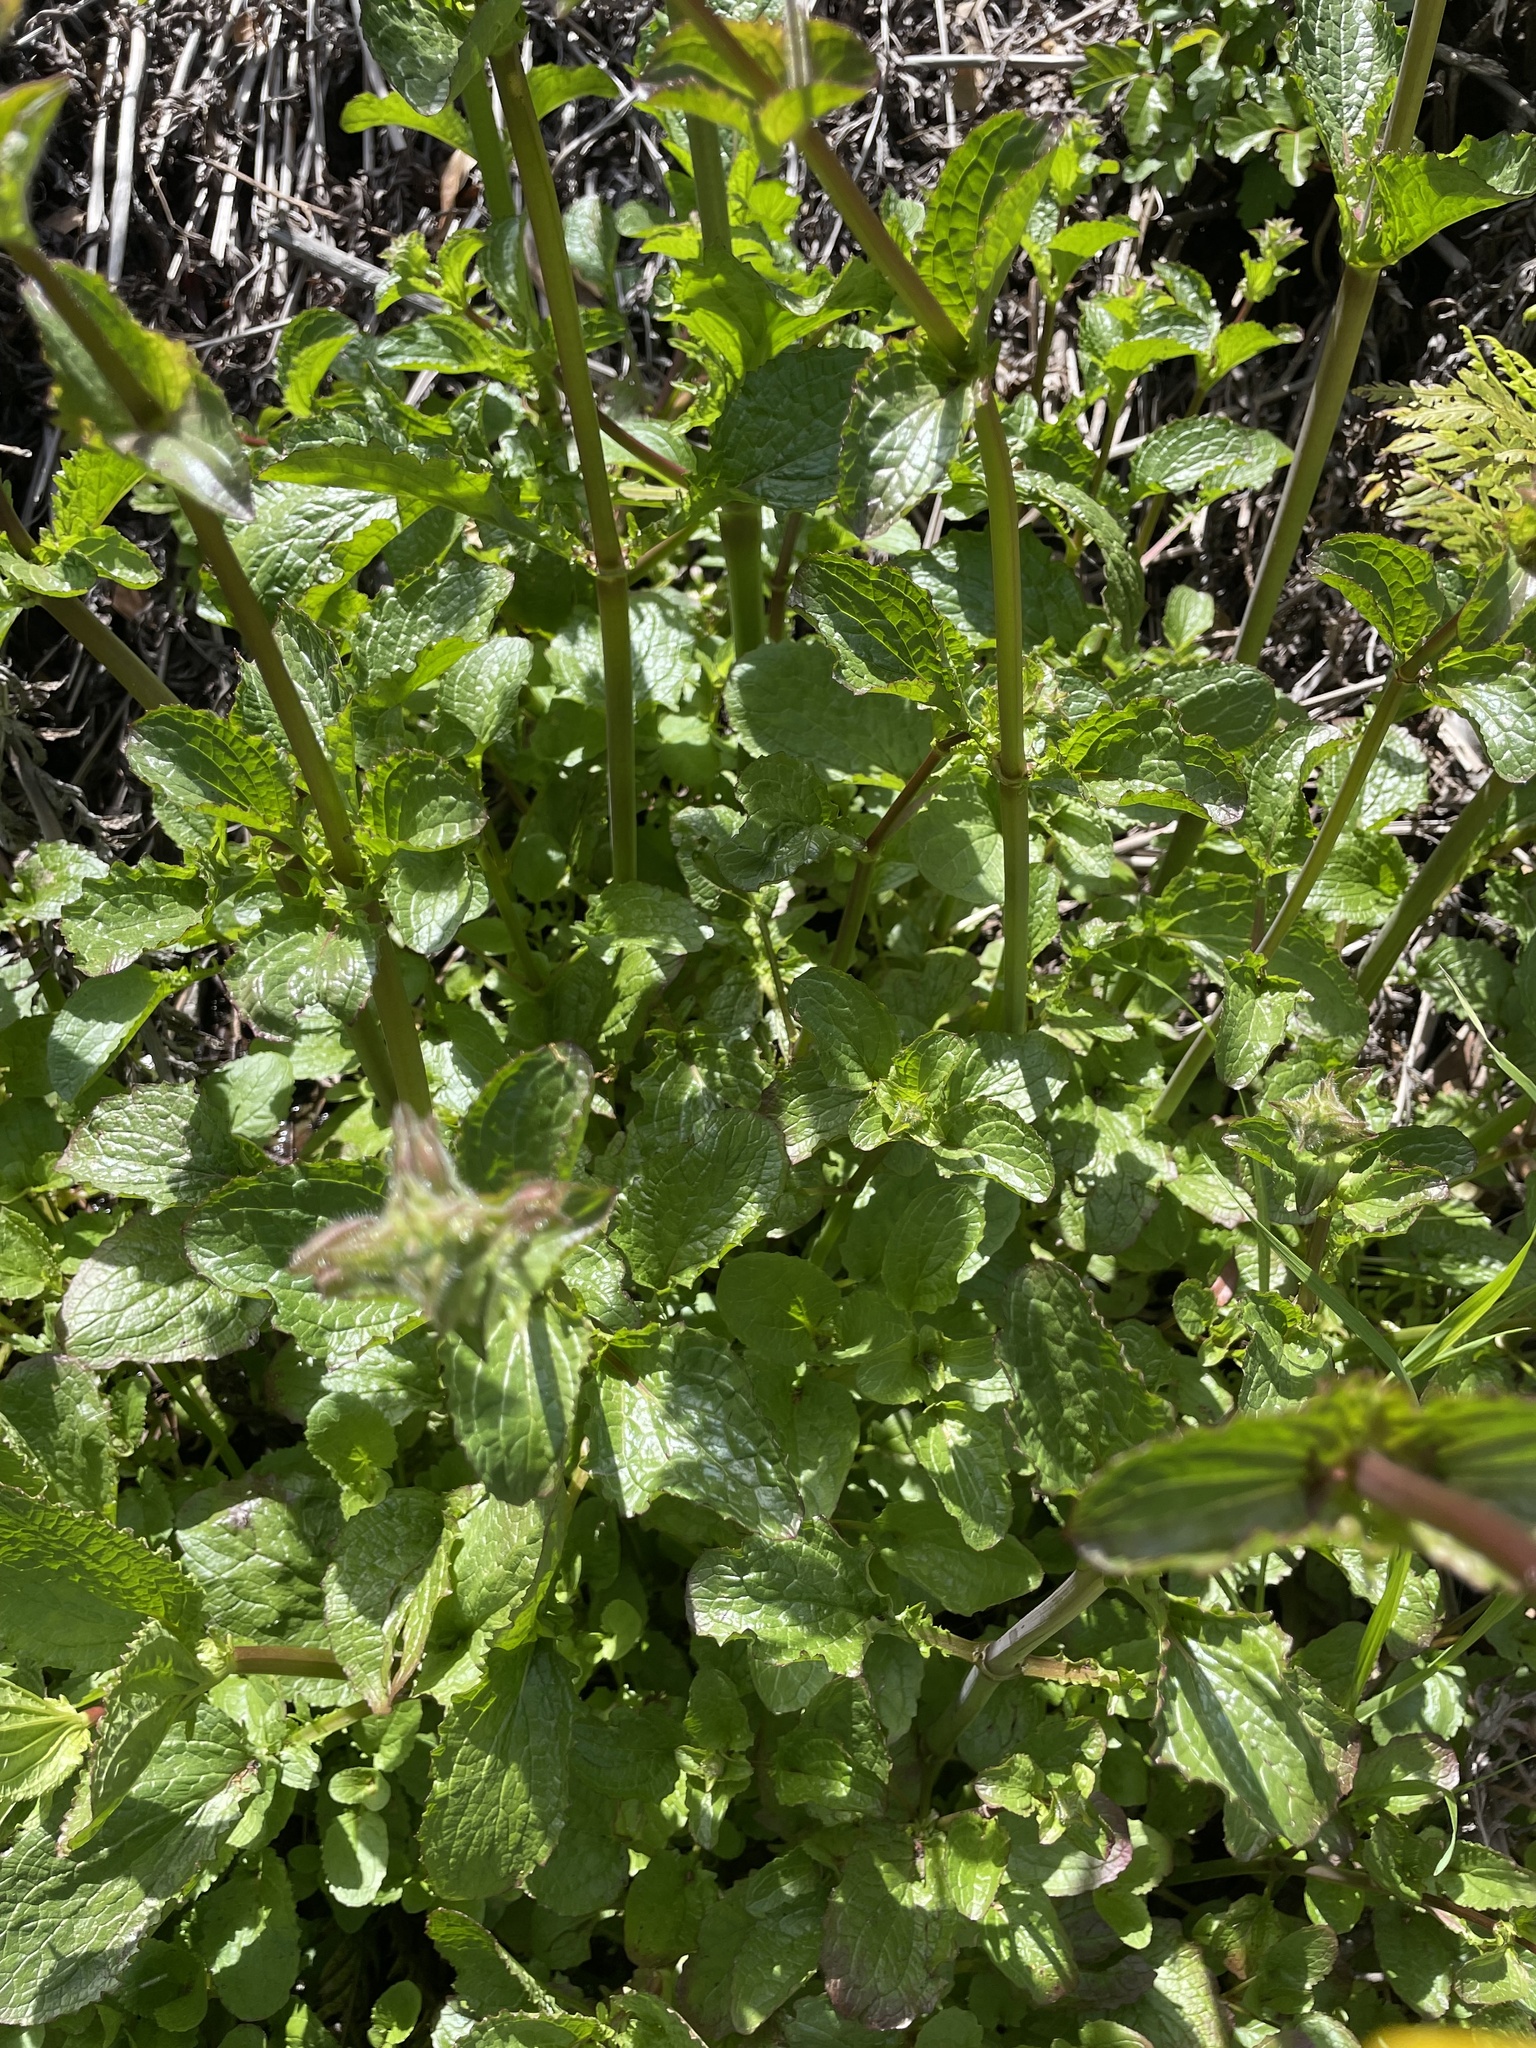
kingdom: Plantae
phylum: Tracheophyta
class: Magnoliopsida
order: Lamiales
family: Phrymaceae
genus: Erythranthe
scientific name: Erythranthe guttata
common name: Monkeyflower
